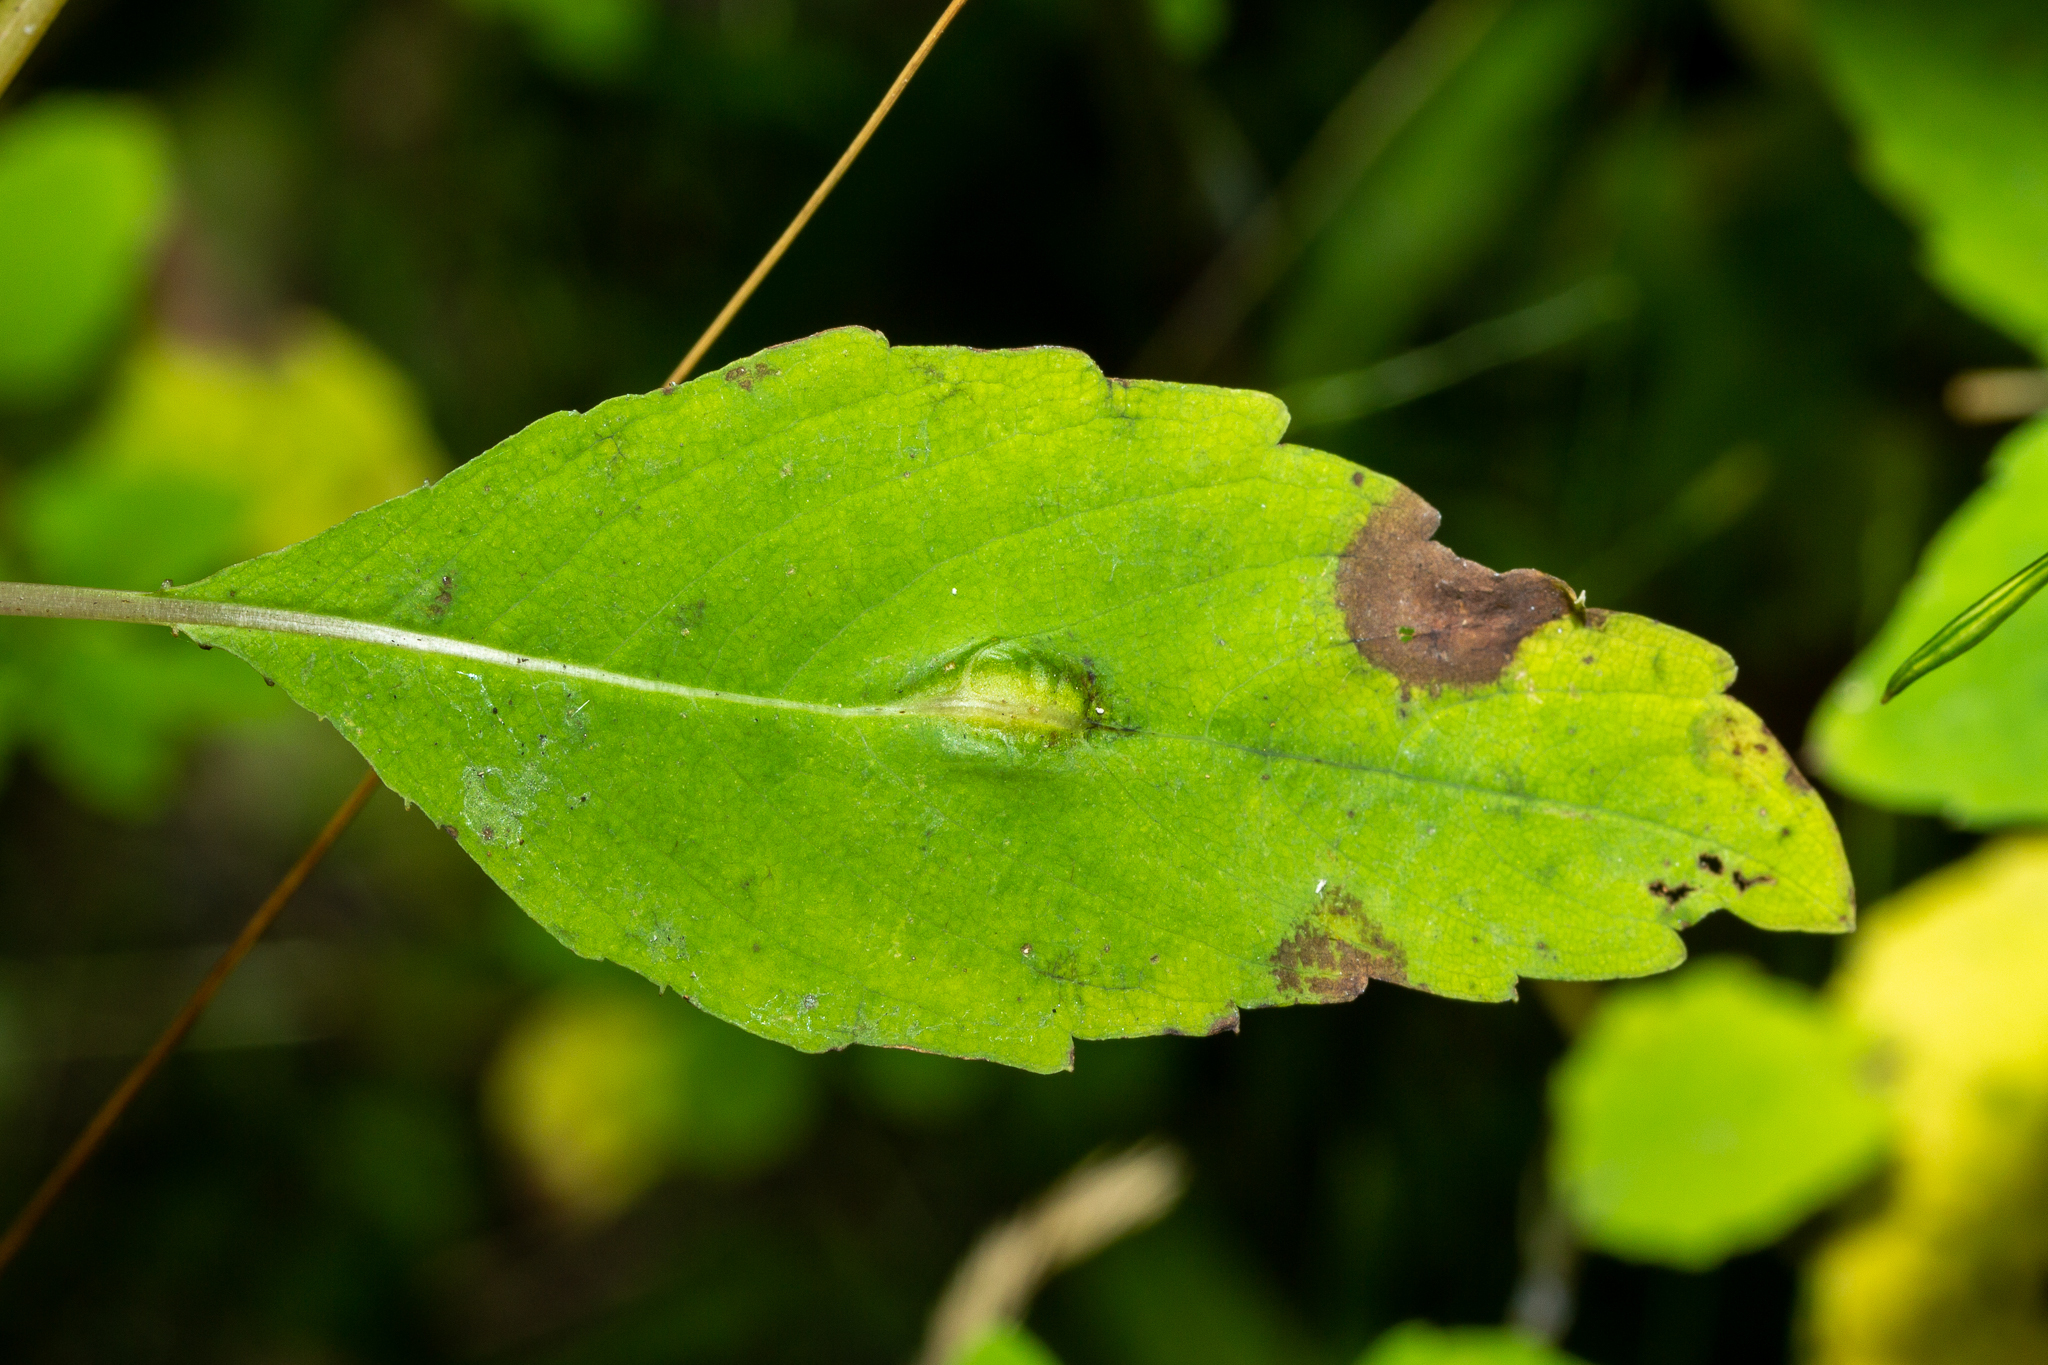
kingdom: Animalia
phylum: Arthropoda
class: Insecta
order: Diptera
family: Cecidomyiidae
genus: Neolasioptera
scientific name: Neolasioptera impatientifolia
